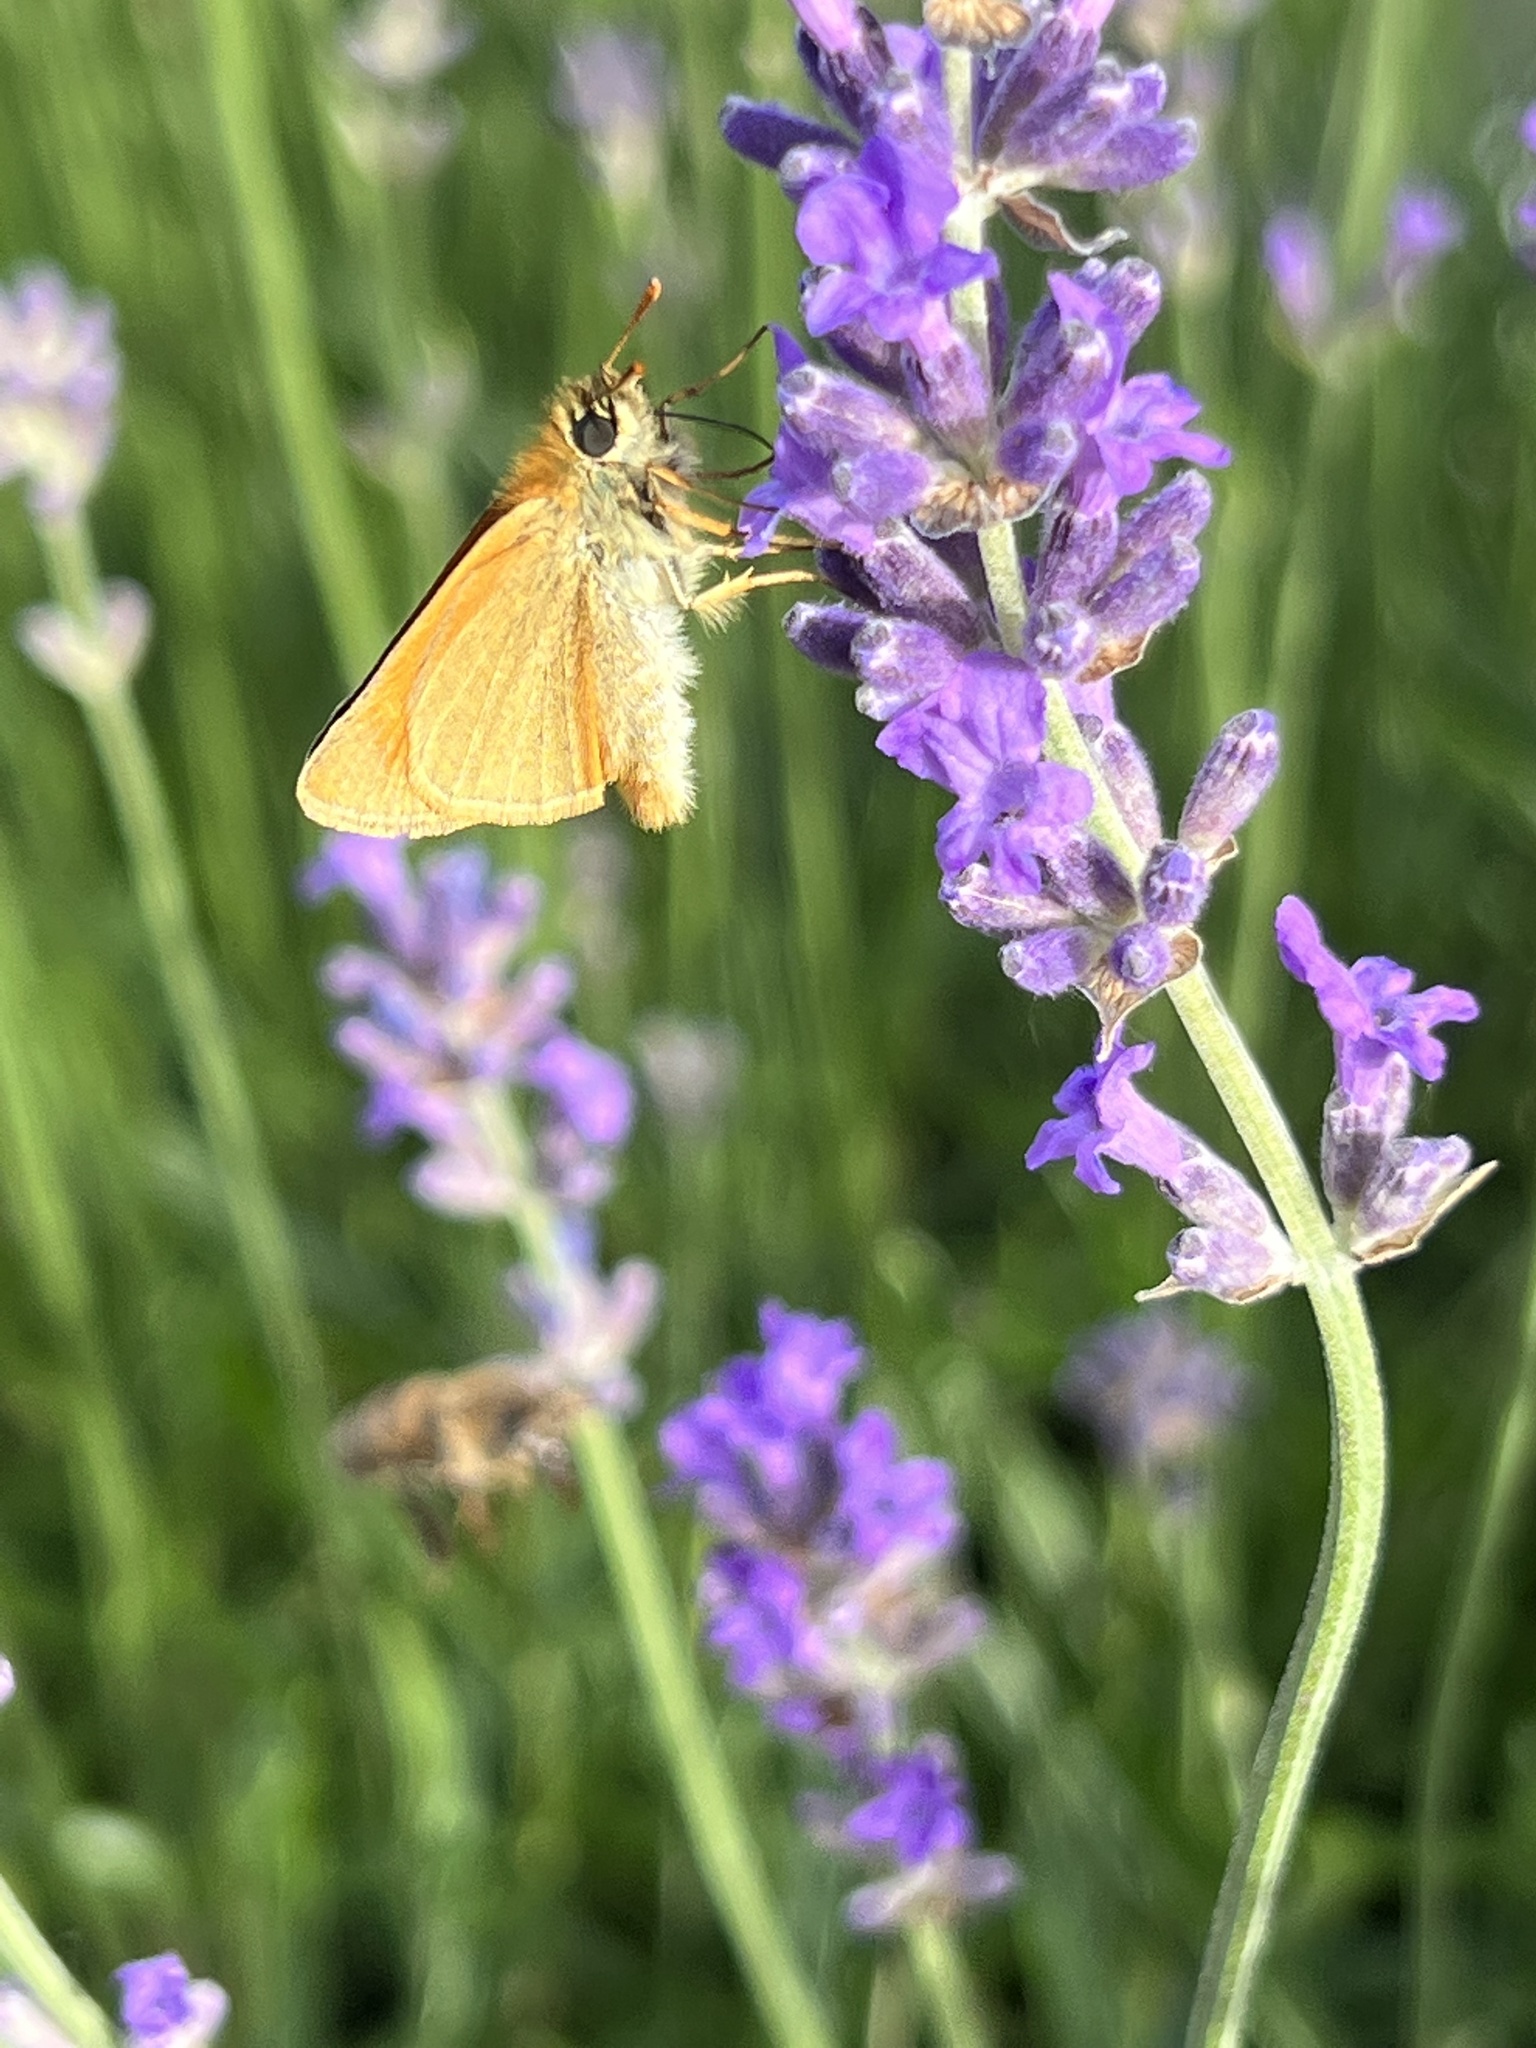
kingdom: Animalia
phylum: Arthropoda
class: Insecta
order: Lepidoptera
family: Hesperiidae
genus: Thymelicus
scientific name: Thymelicus sylvestris
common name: Small skipper
